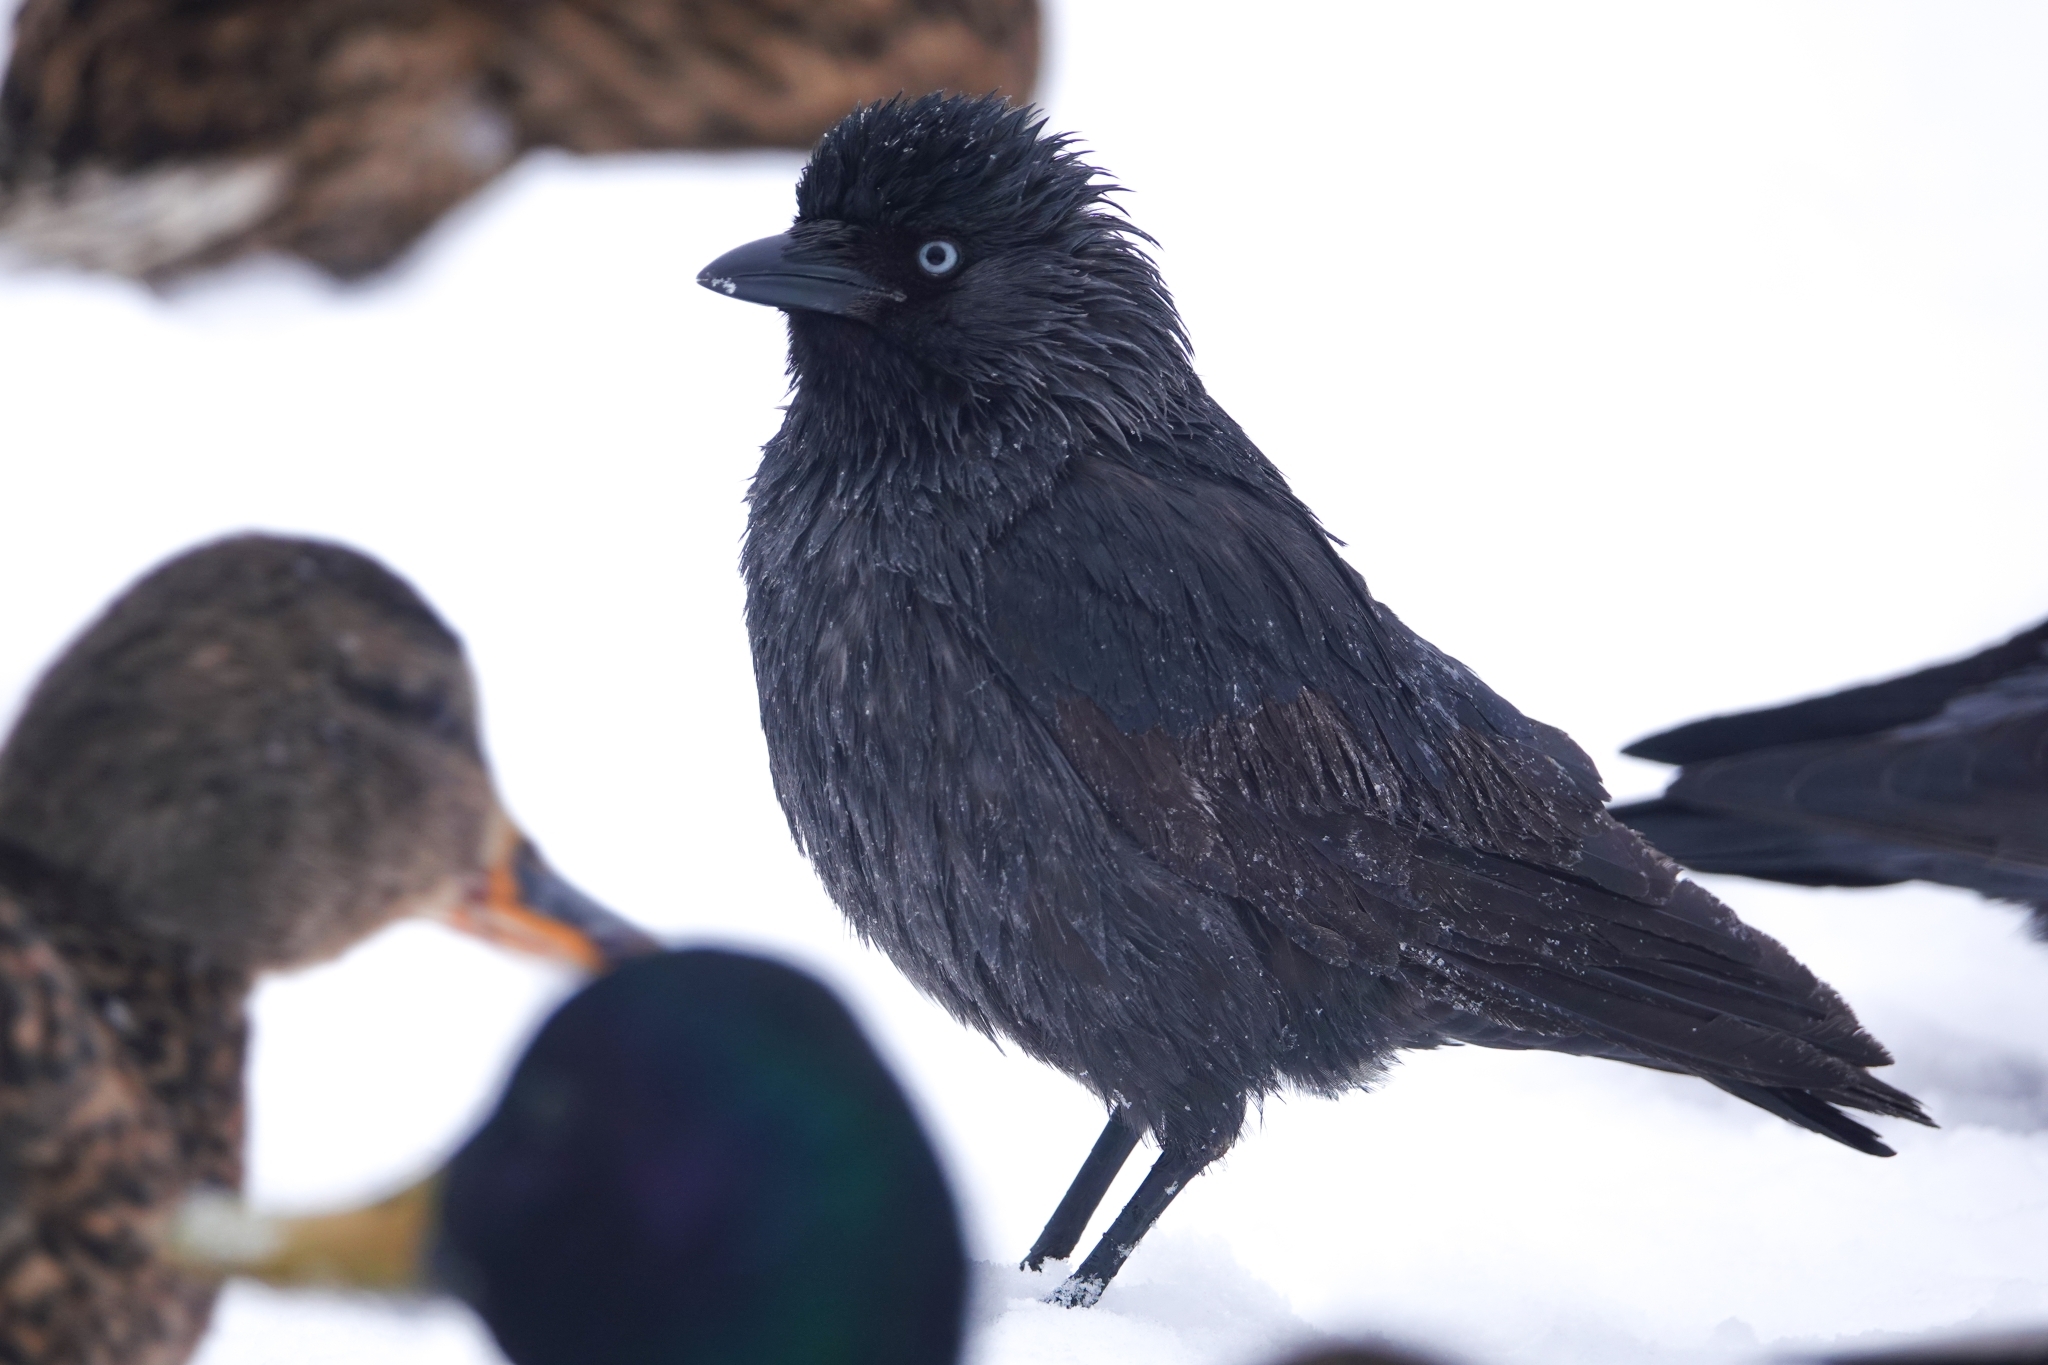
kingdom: Animalia
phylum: Chordata
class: Aves
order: Passeriformes
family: Corvidae
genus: Coloeus
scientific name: Coloeus monedula
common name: Western jackdaw
